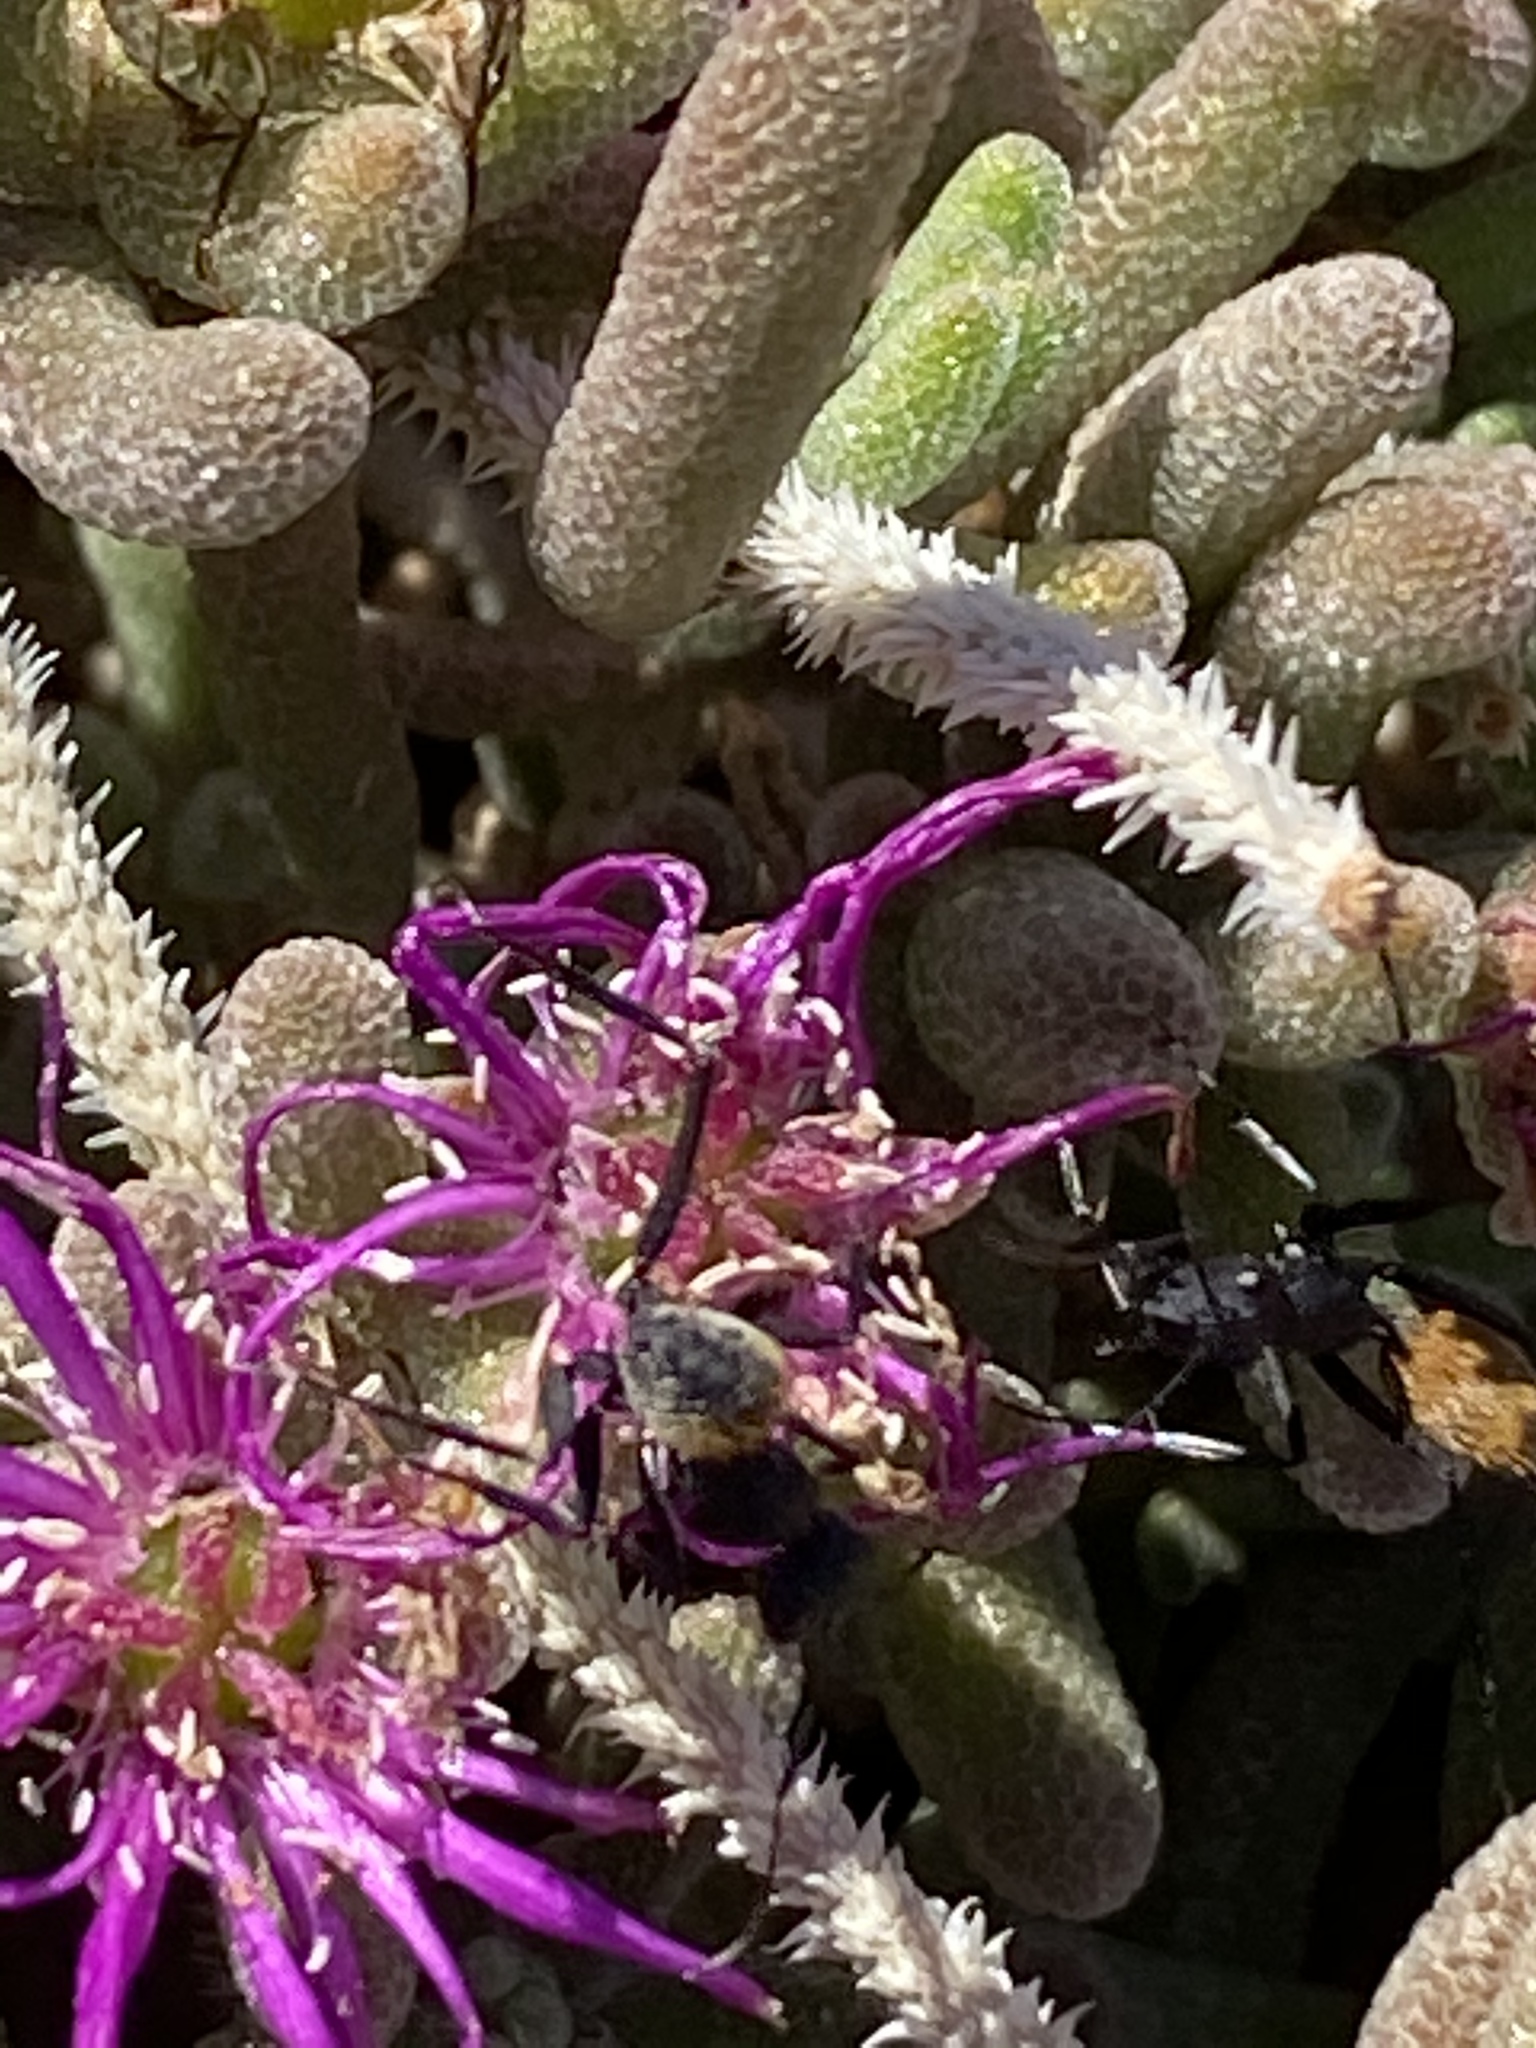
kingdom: Plantae
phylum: Tracheophyta
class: Magnoliopsida
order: Caryophyllales
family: Aizoaceae
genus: Drosanthemum
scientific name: Drosanthemum archeri
